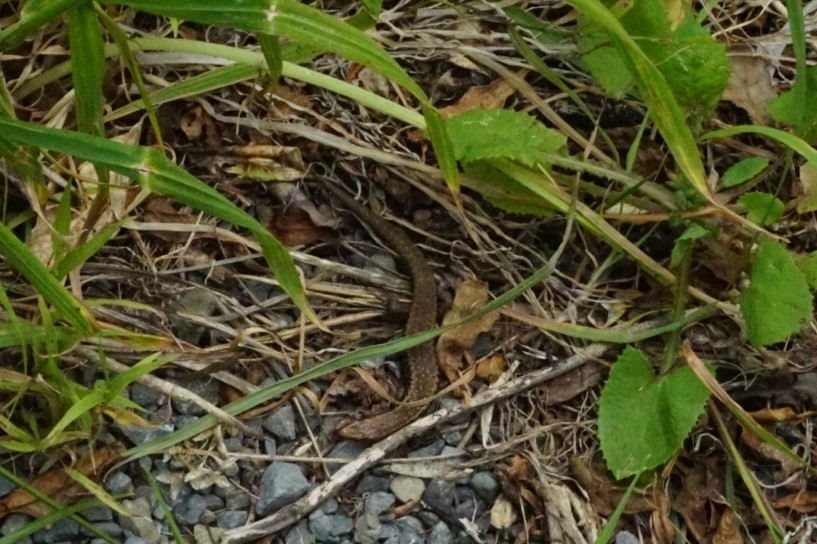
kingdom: Animalia
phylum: Chordata
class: Squamata
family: Scincidae
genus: Oligosoma
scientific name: Oligosoma polychroma
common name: Common new zealand skink
